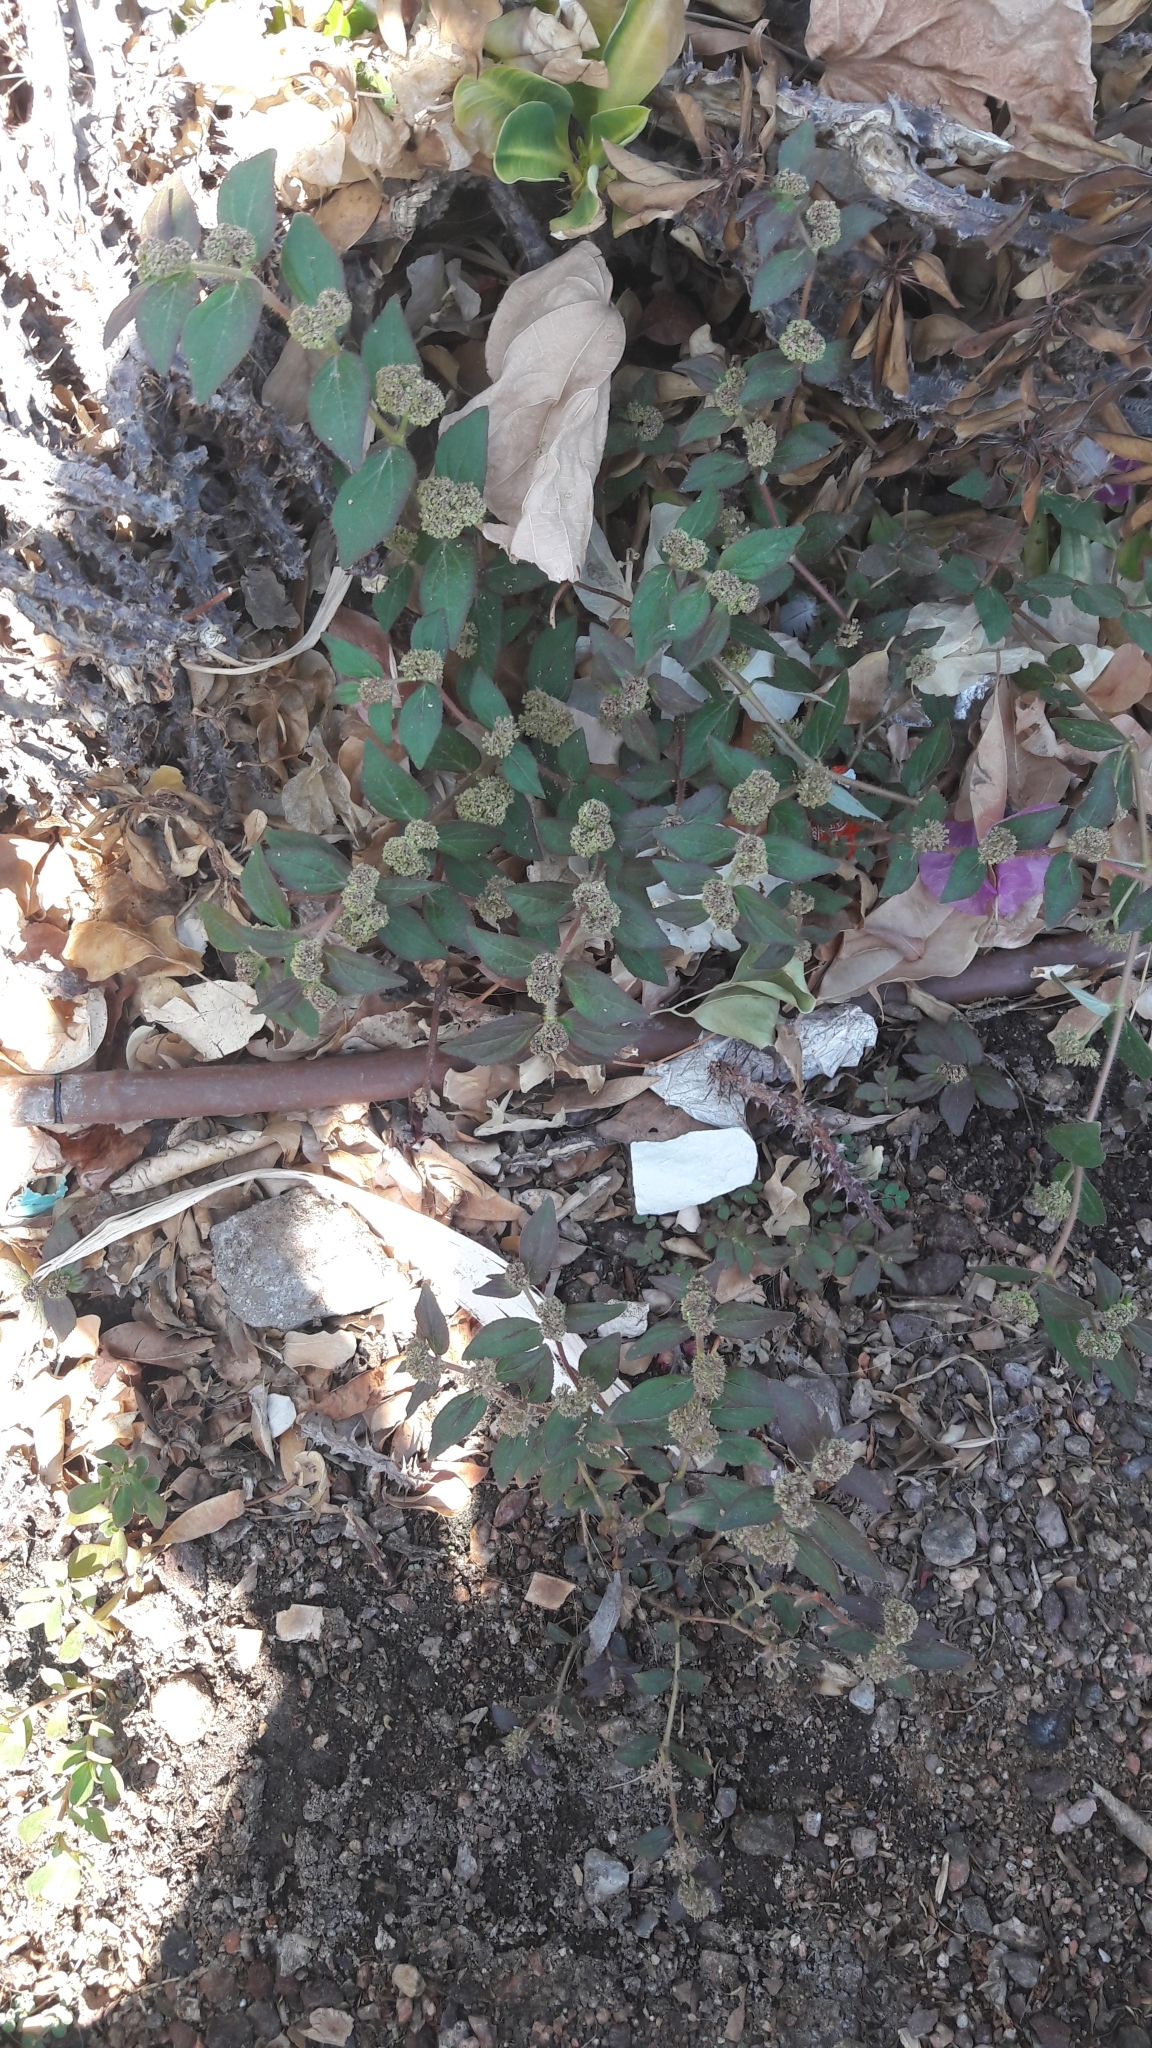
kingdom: Plantae
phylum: Tracheophyta
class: Magnoliopsida
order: Malpighiales
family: Euphorbiaceae
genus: Euphorbia
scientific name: Euphorbia hirta
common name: Pillpod sandmat
